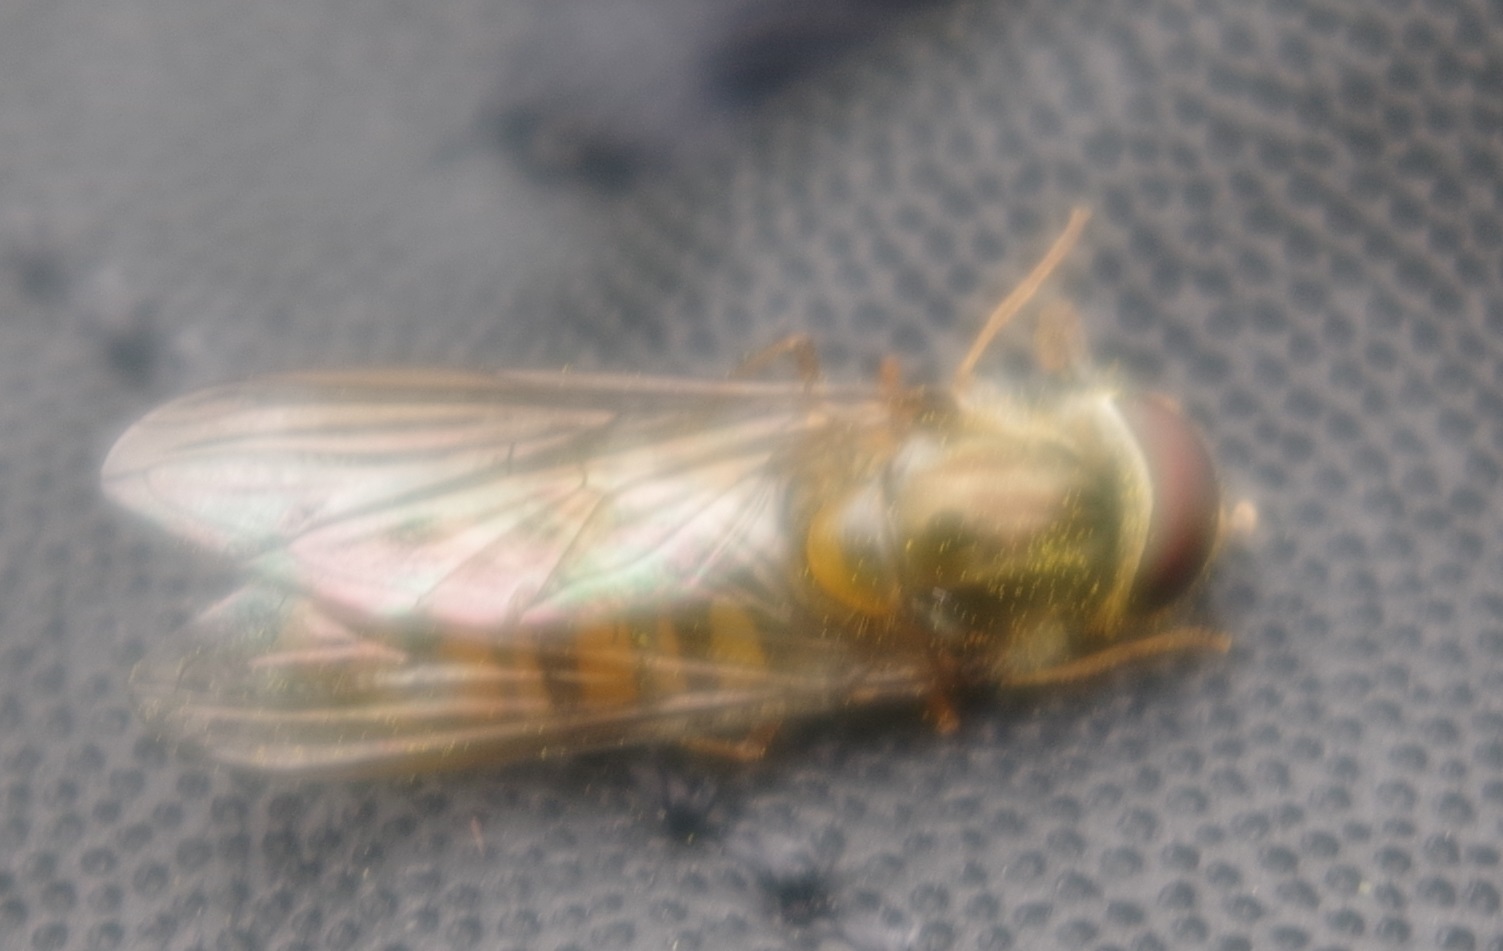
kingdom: Animalia
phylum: Arthropoda
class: Insecta
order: Diptera
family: Syrphidae
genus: Episyrphus
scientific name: Episyrphus balteatus
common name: Marmalade hoverfly
